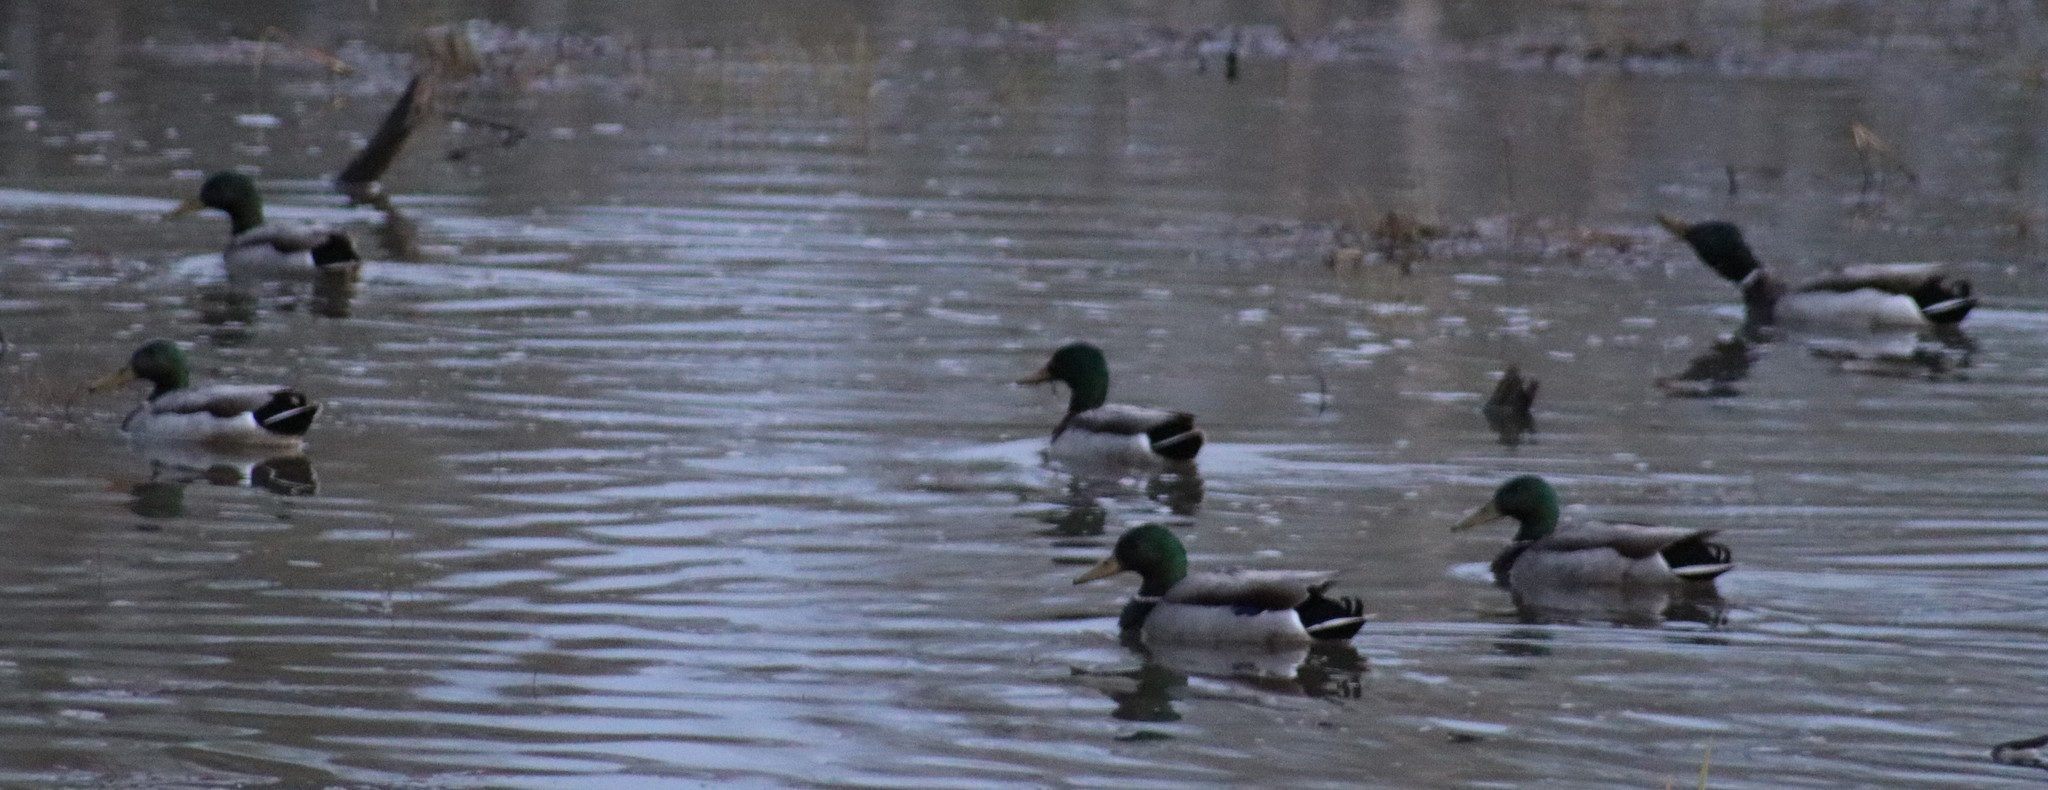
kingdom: Animalia
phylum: Chordata
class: Aves
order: Anseriformes
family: Anatidae
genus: Anas
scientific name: Anas platyrhynchos
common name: Mallard
